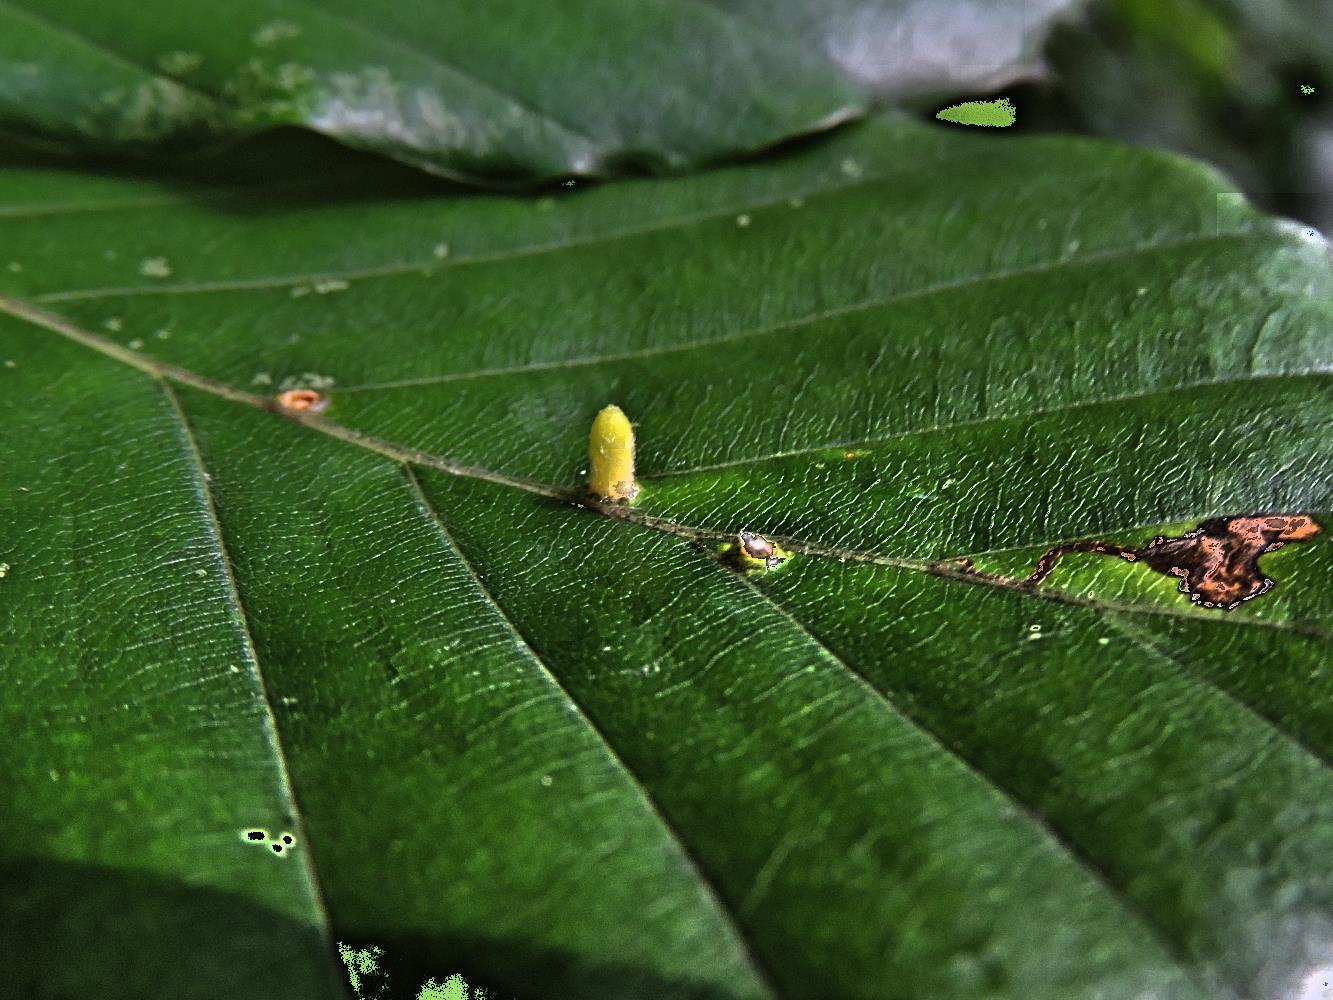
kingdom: Animalia
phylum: Arthropoda
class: Insecta
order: Diptera
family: Cecidomyiidae
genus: Hartigiola
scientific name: Hartigiola annulipes
